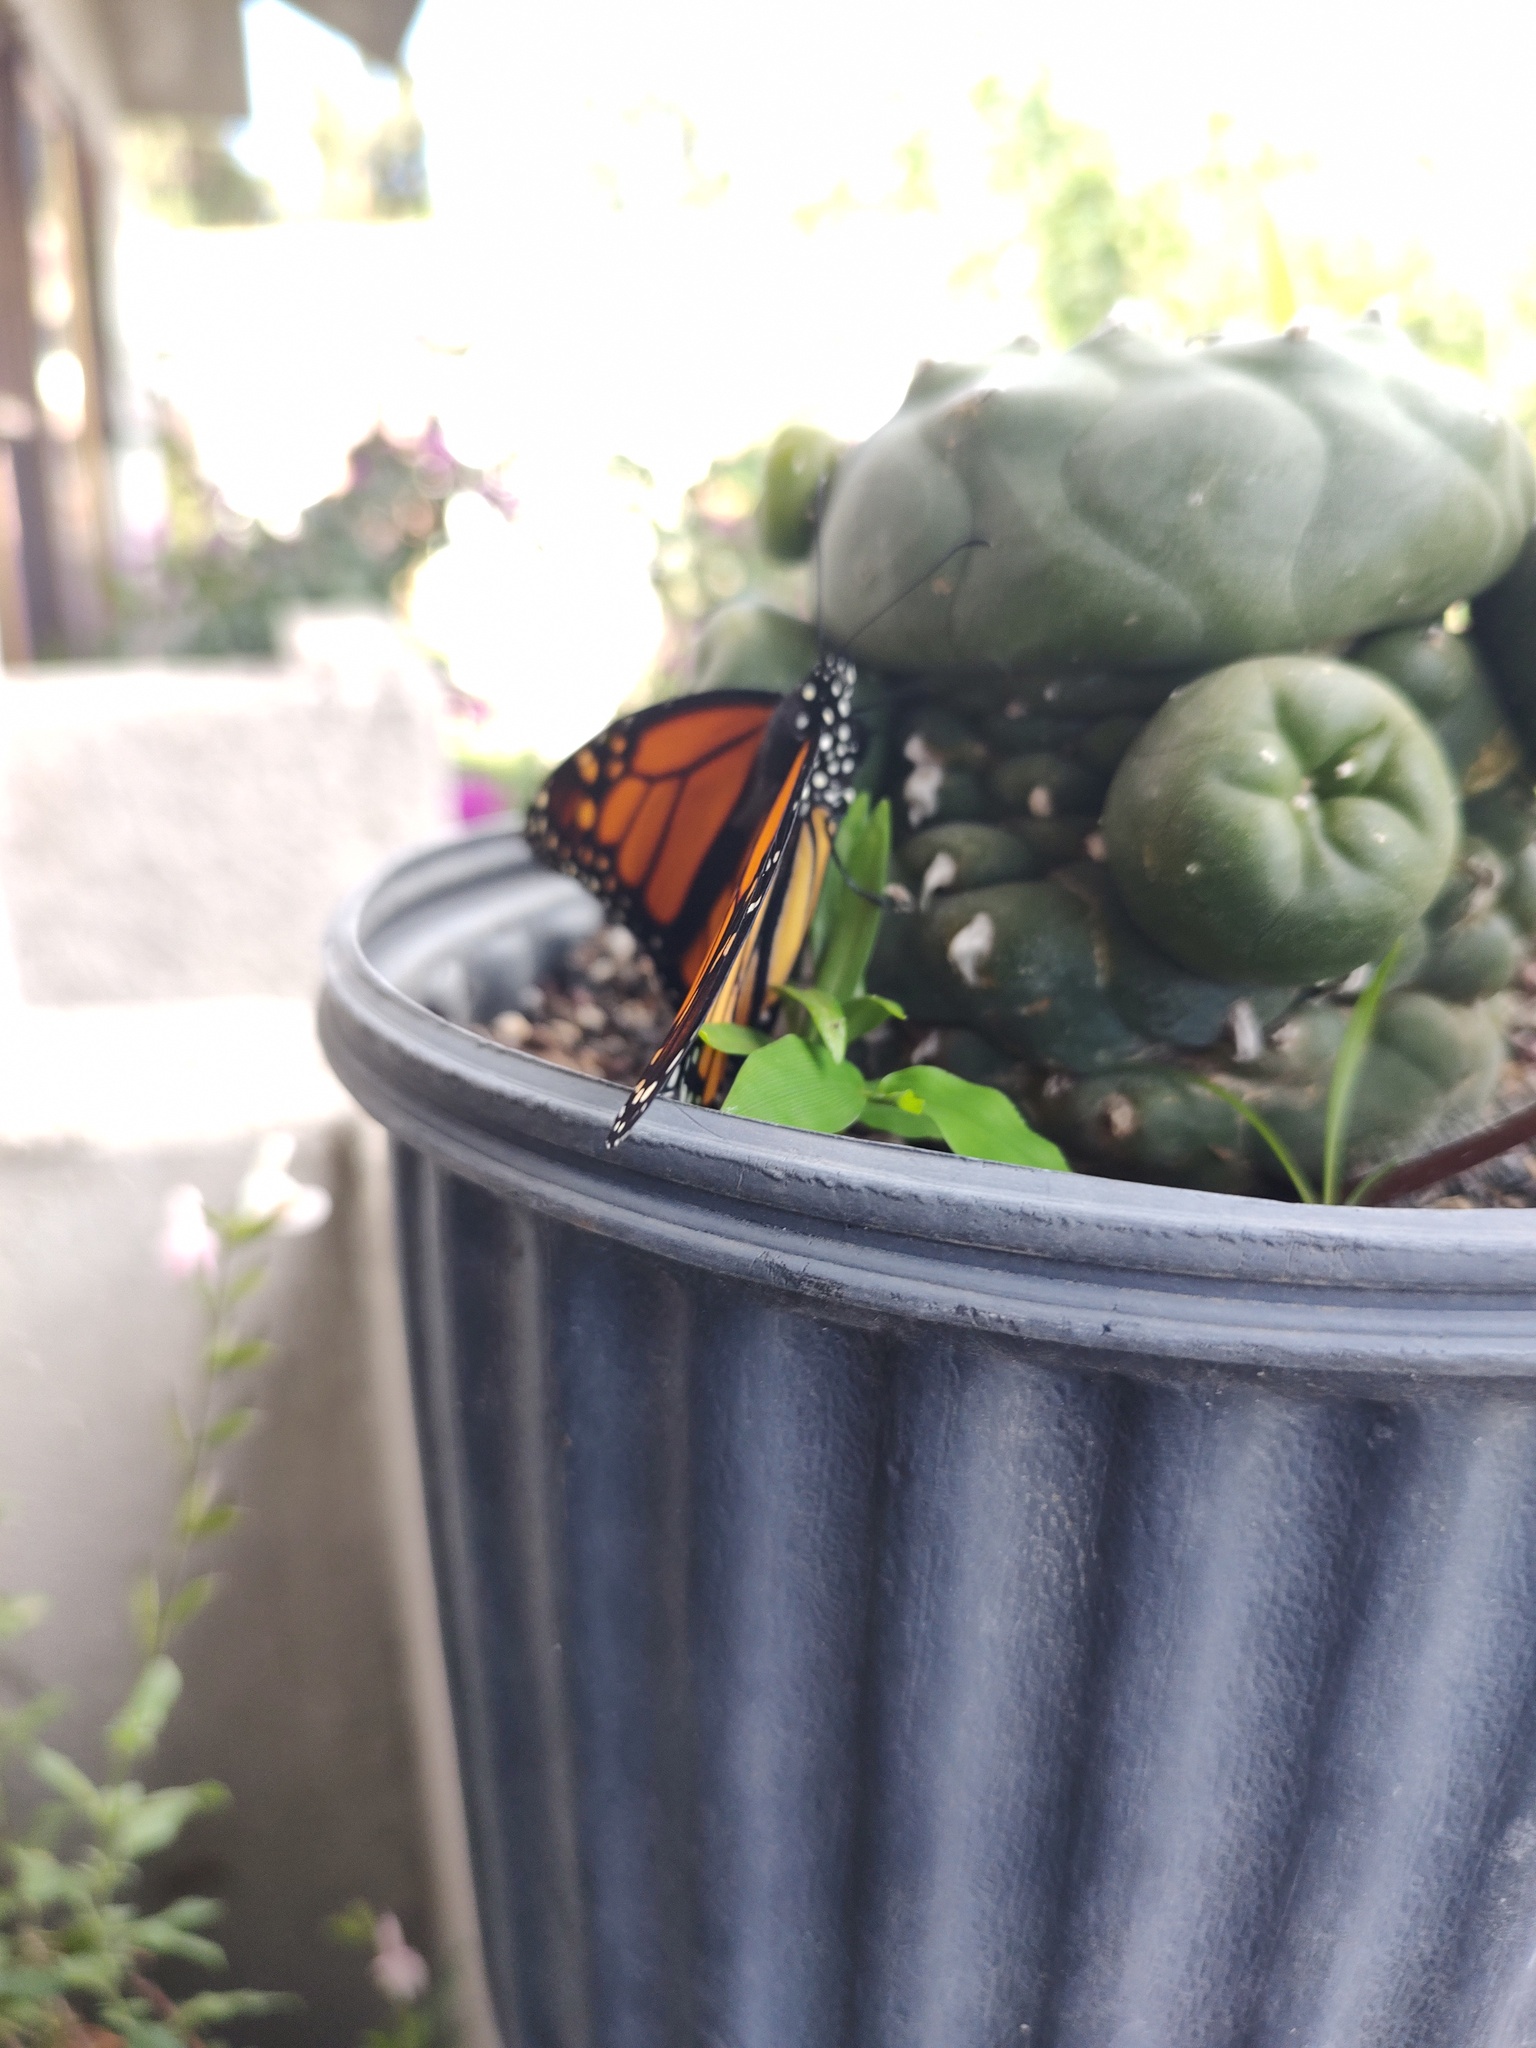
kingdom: Animalia
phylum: Arthropoda
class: Insecta
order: Lepidoptera
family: Nymphalidae
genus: Danaus
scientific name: Danaus plexippus
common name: Monarch
